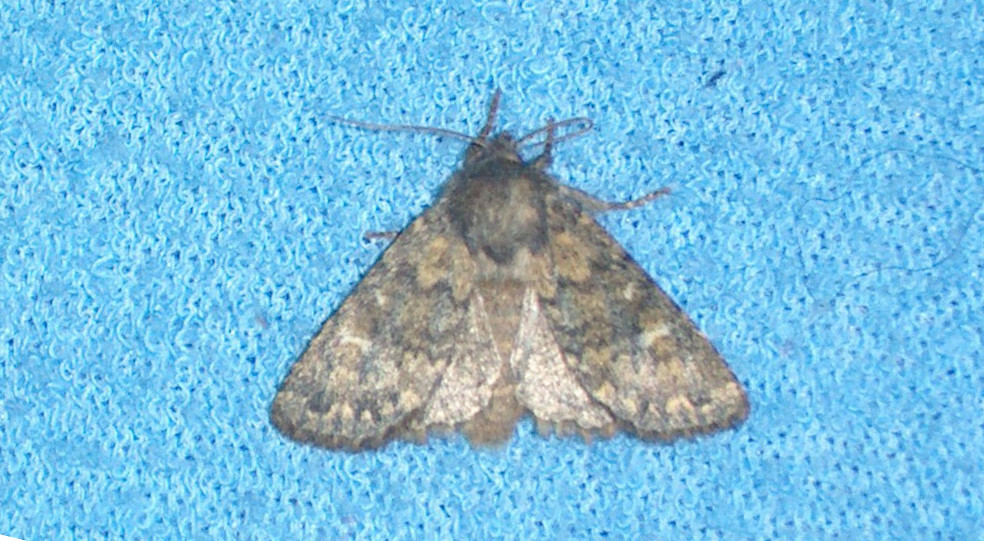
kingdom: Animalia
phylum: Arthropoda
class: Insecta
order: Lepidoptera
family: Noctuidae
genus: Dasypolia
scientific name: Dasypolia templi
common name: Brindled ochre
